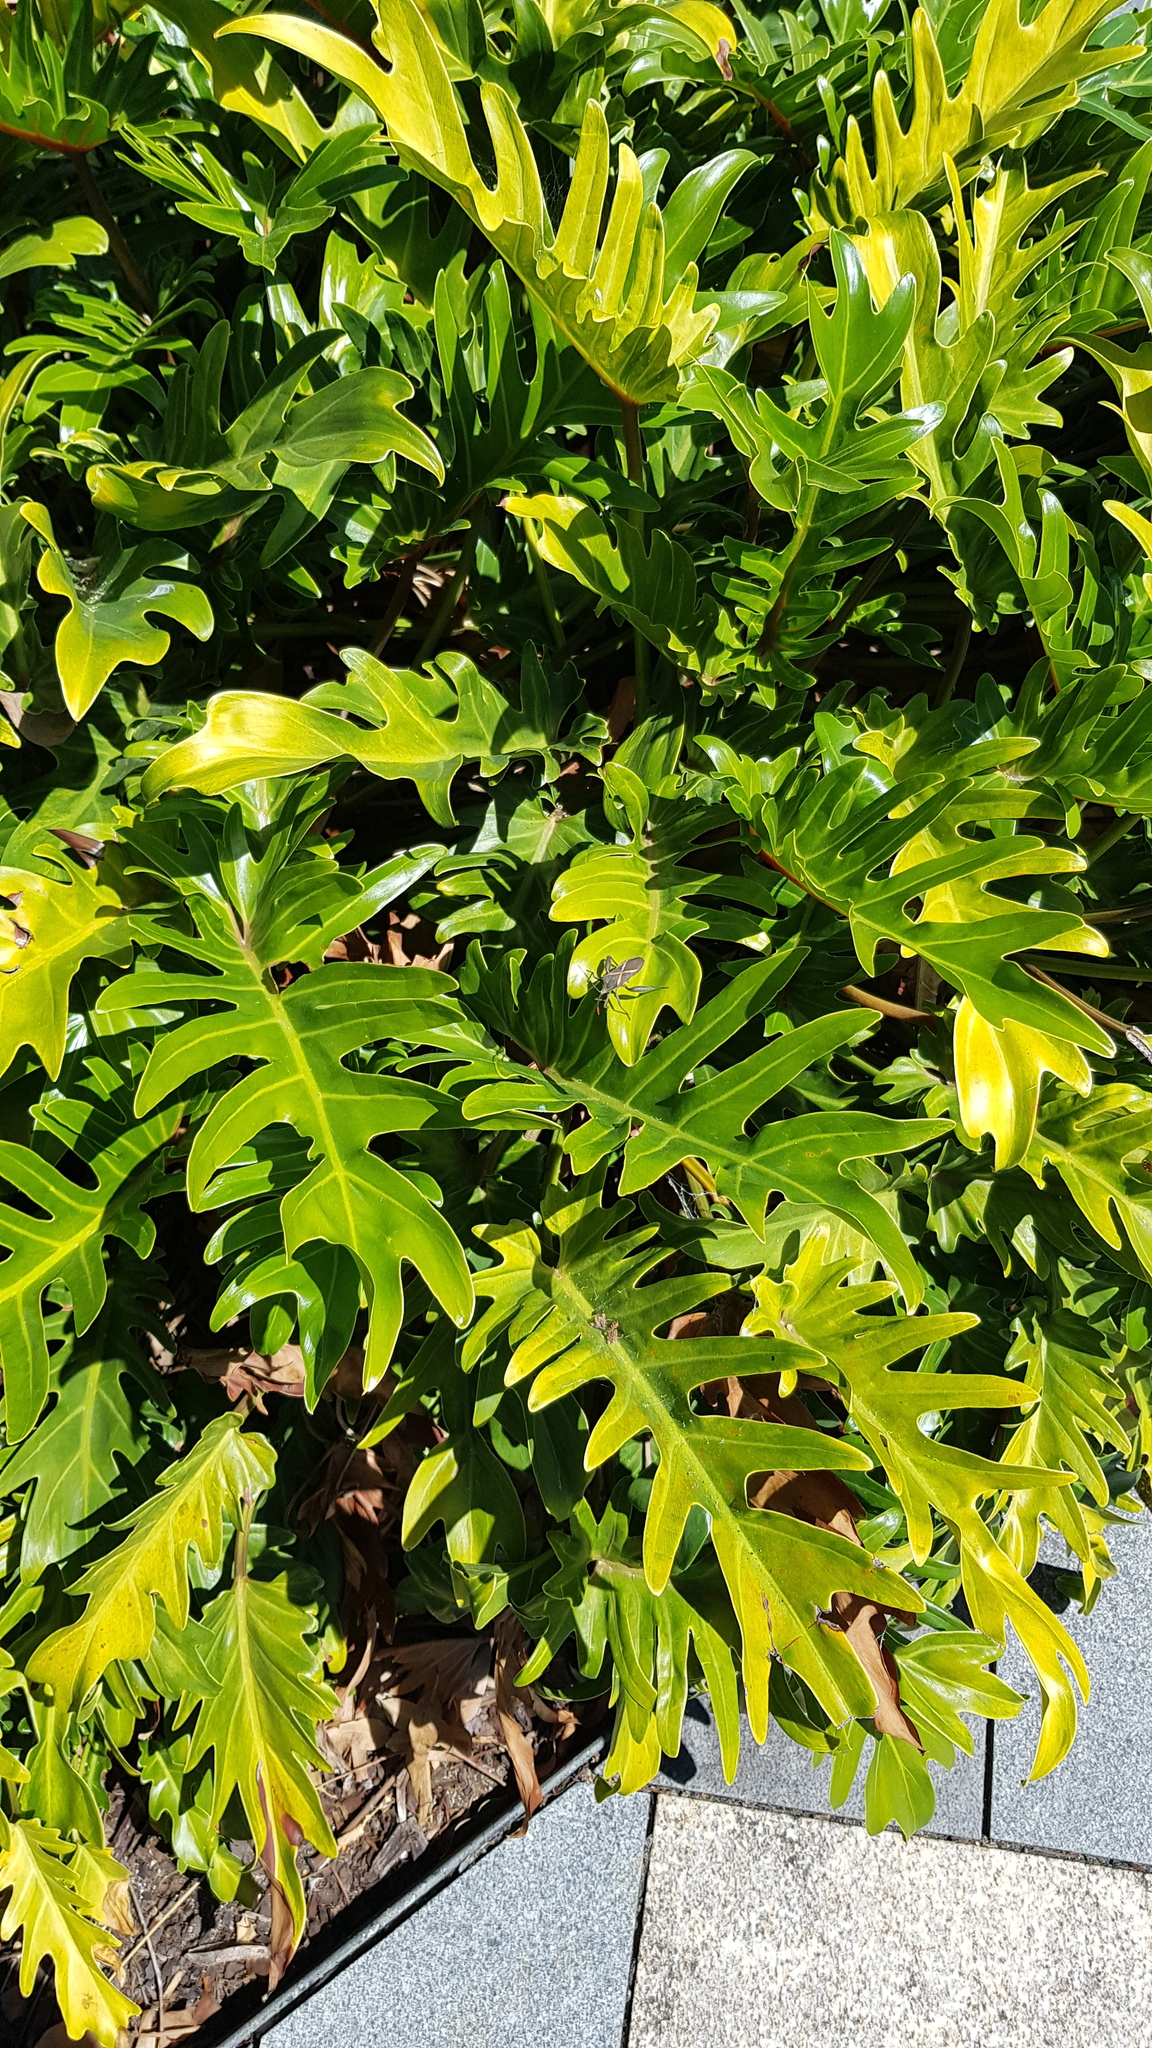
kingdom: Animalia
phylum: Arthropoda
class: Insecta
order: Hemiptera
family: Coreidae
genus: Mictis
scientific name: Mictis profana
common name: Crusader bug
